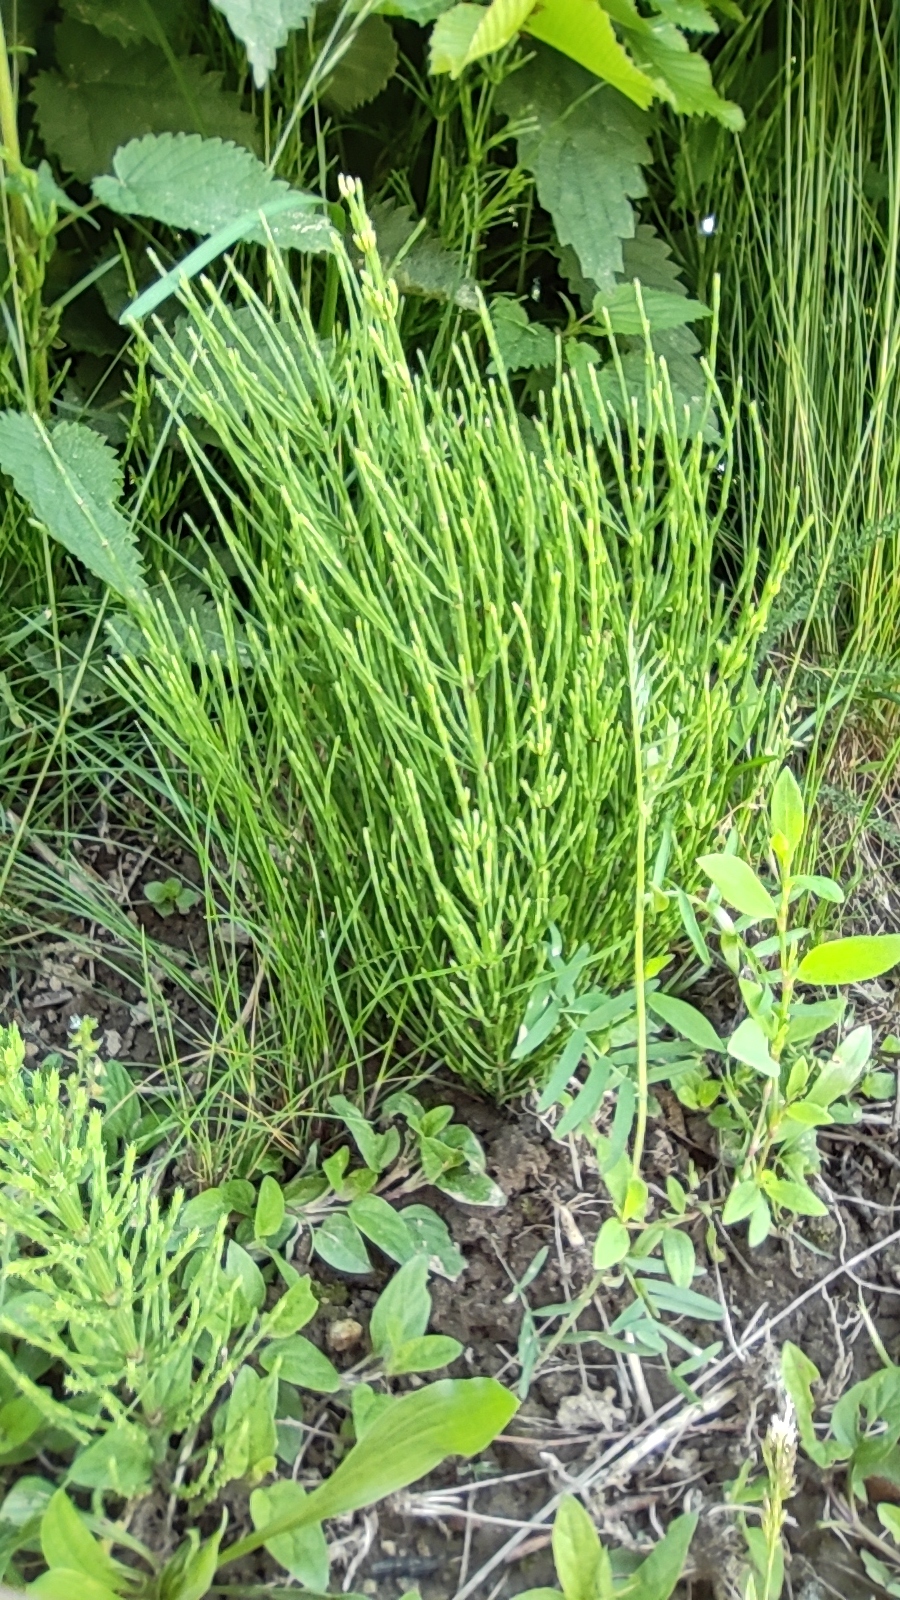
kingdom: Plantae
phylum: Tracheophyta
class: Polypodiopsida
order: Equisetales
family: Equisetaceae
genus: Equisetum
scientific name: Equisetum arvense
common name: Field horsetail
